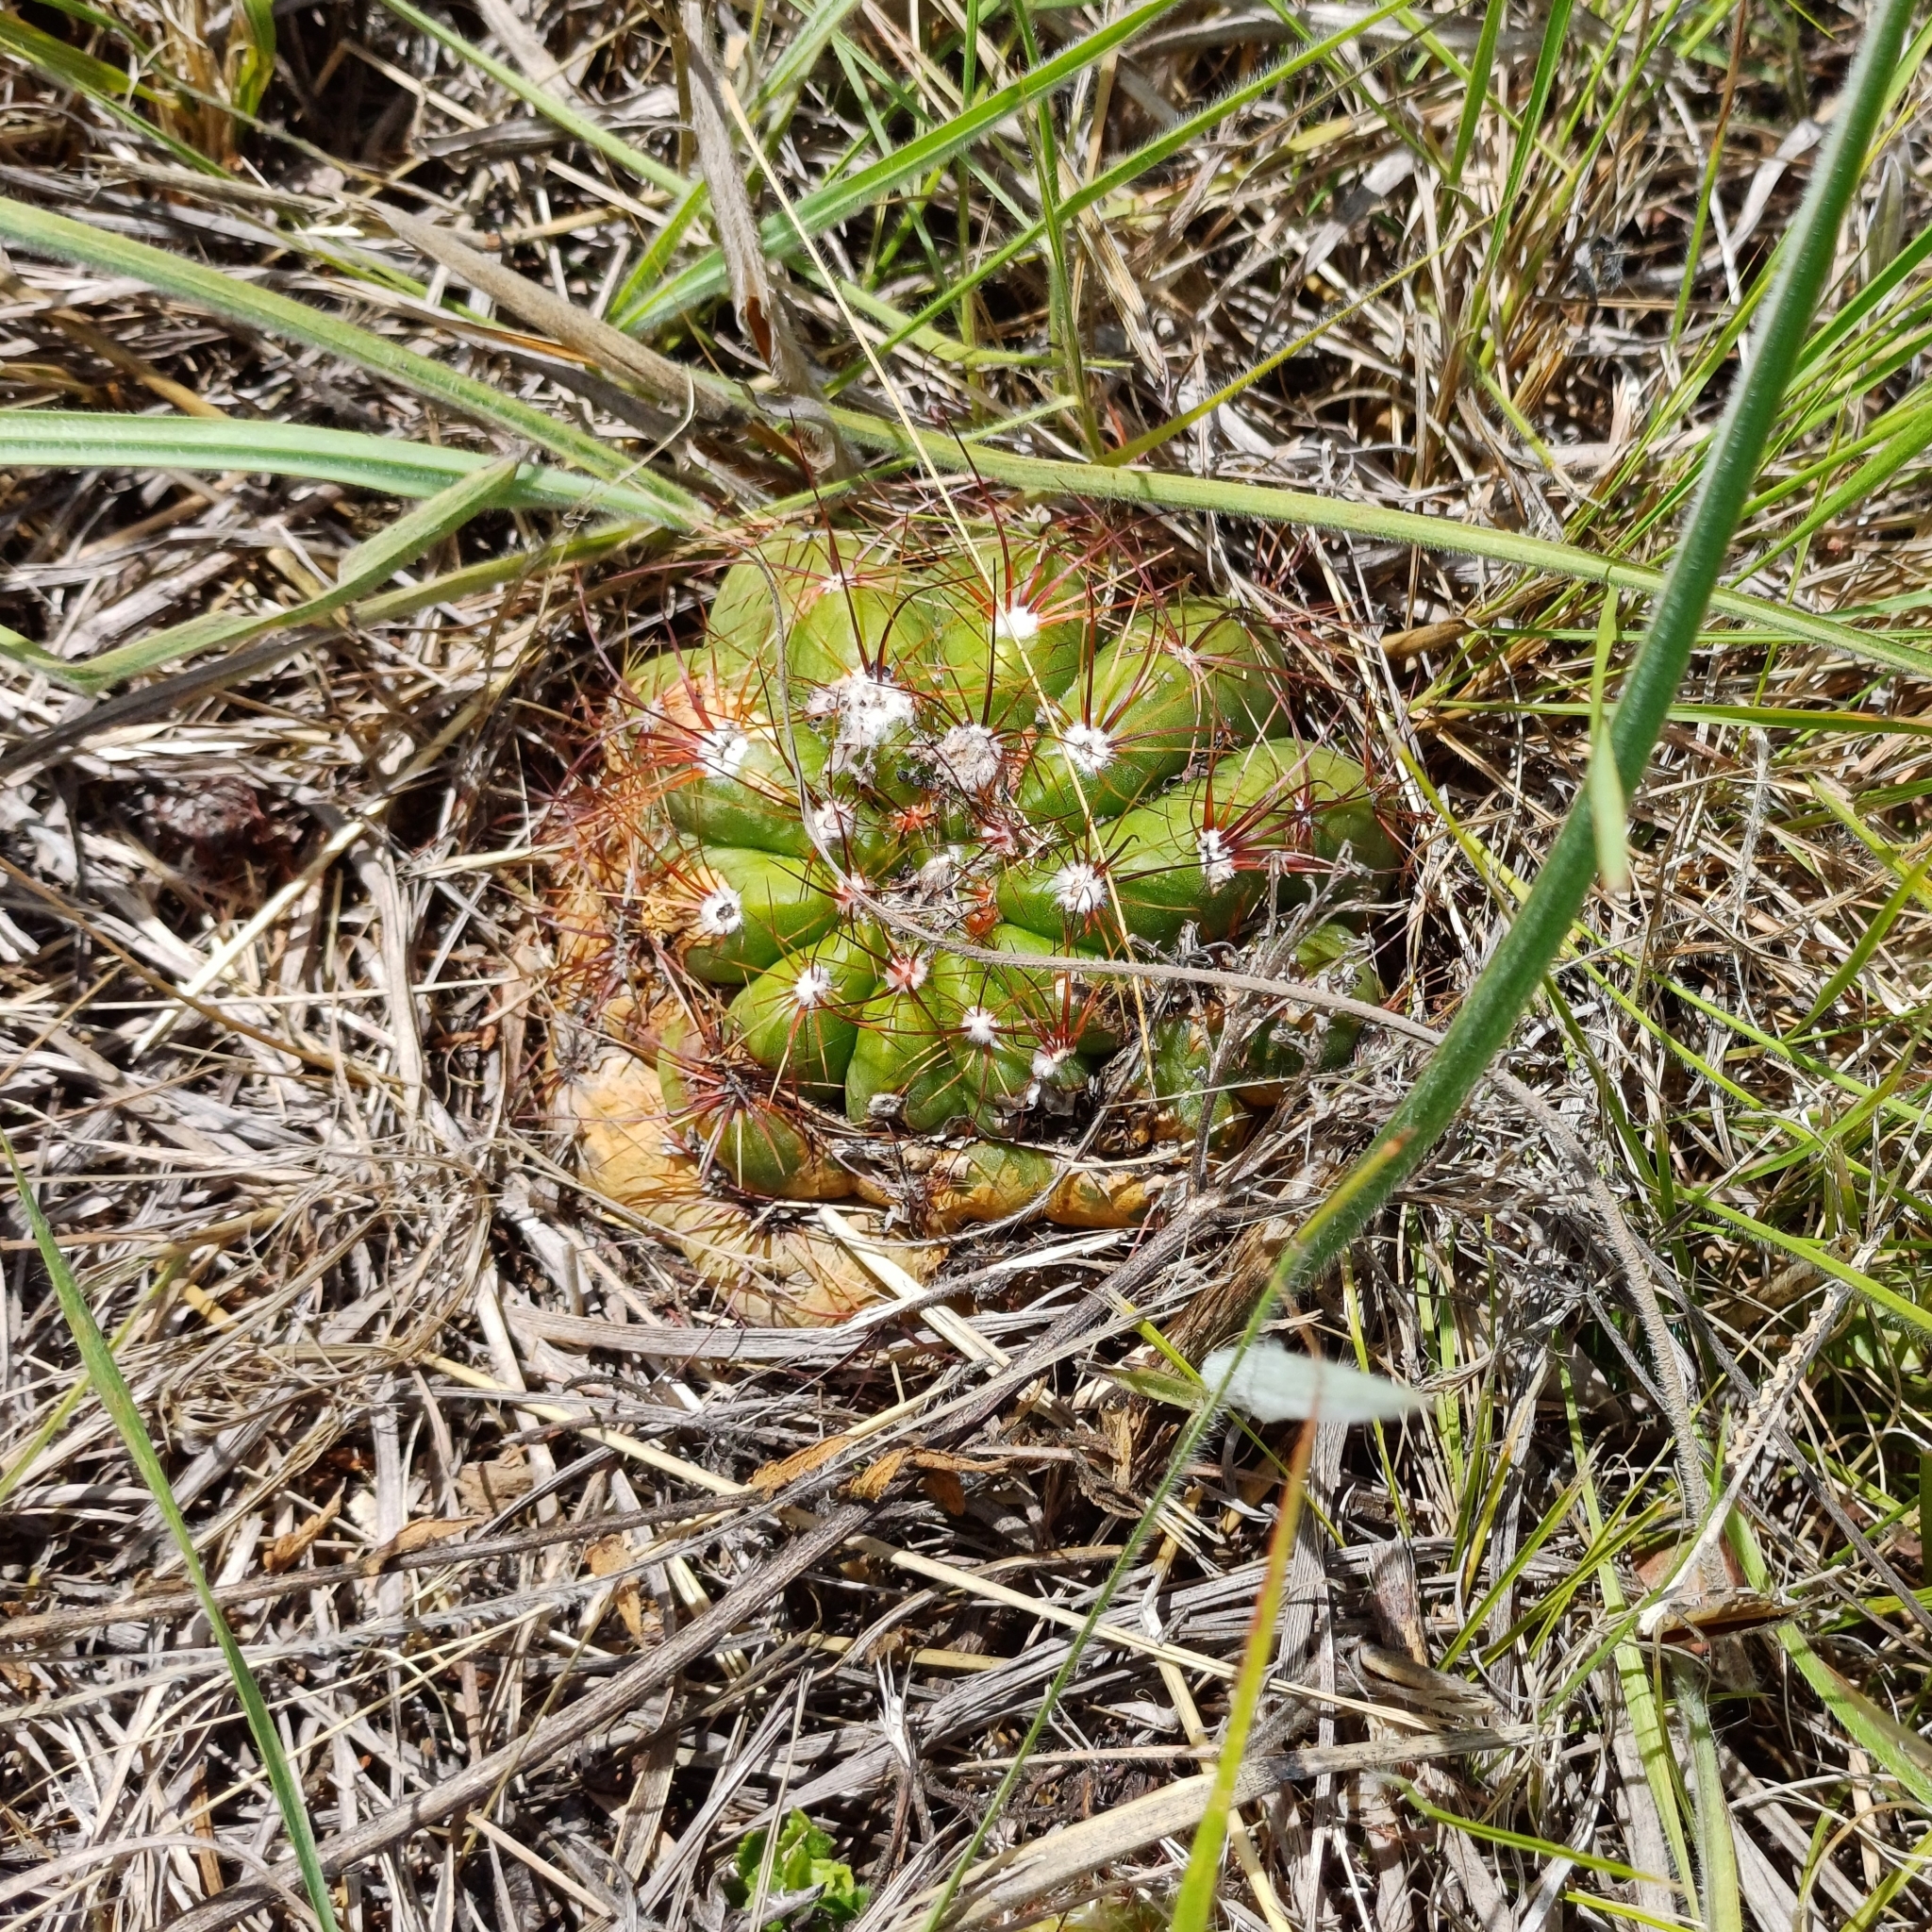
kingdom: Plantae
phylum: Tracheophyta
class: Magnoliopsida
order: Caryophyllales
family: Cactaceae
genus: Parodia
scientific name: Parodia ottonis
